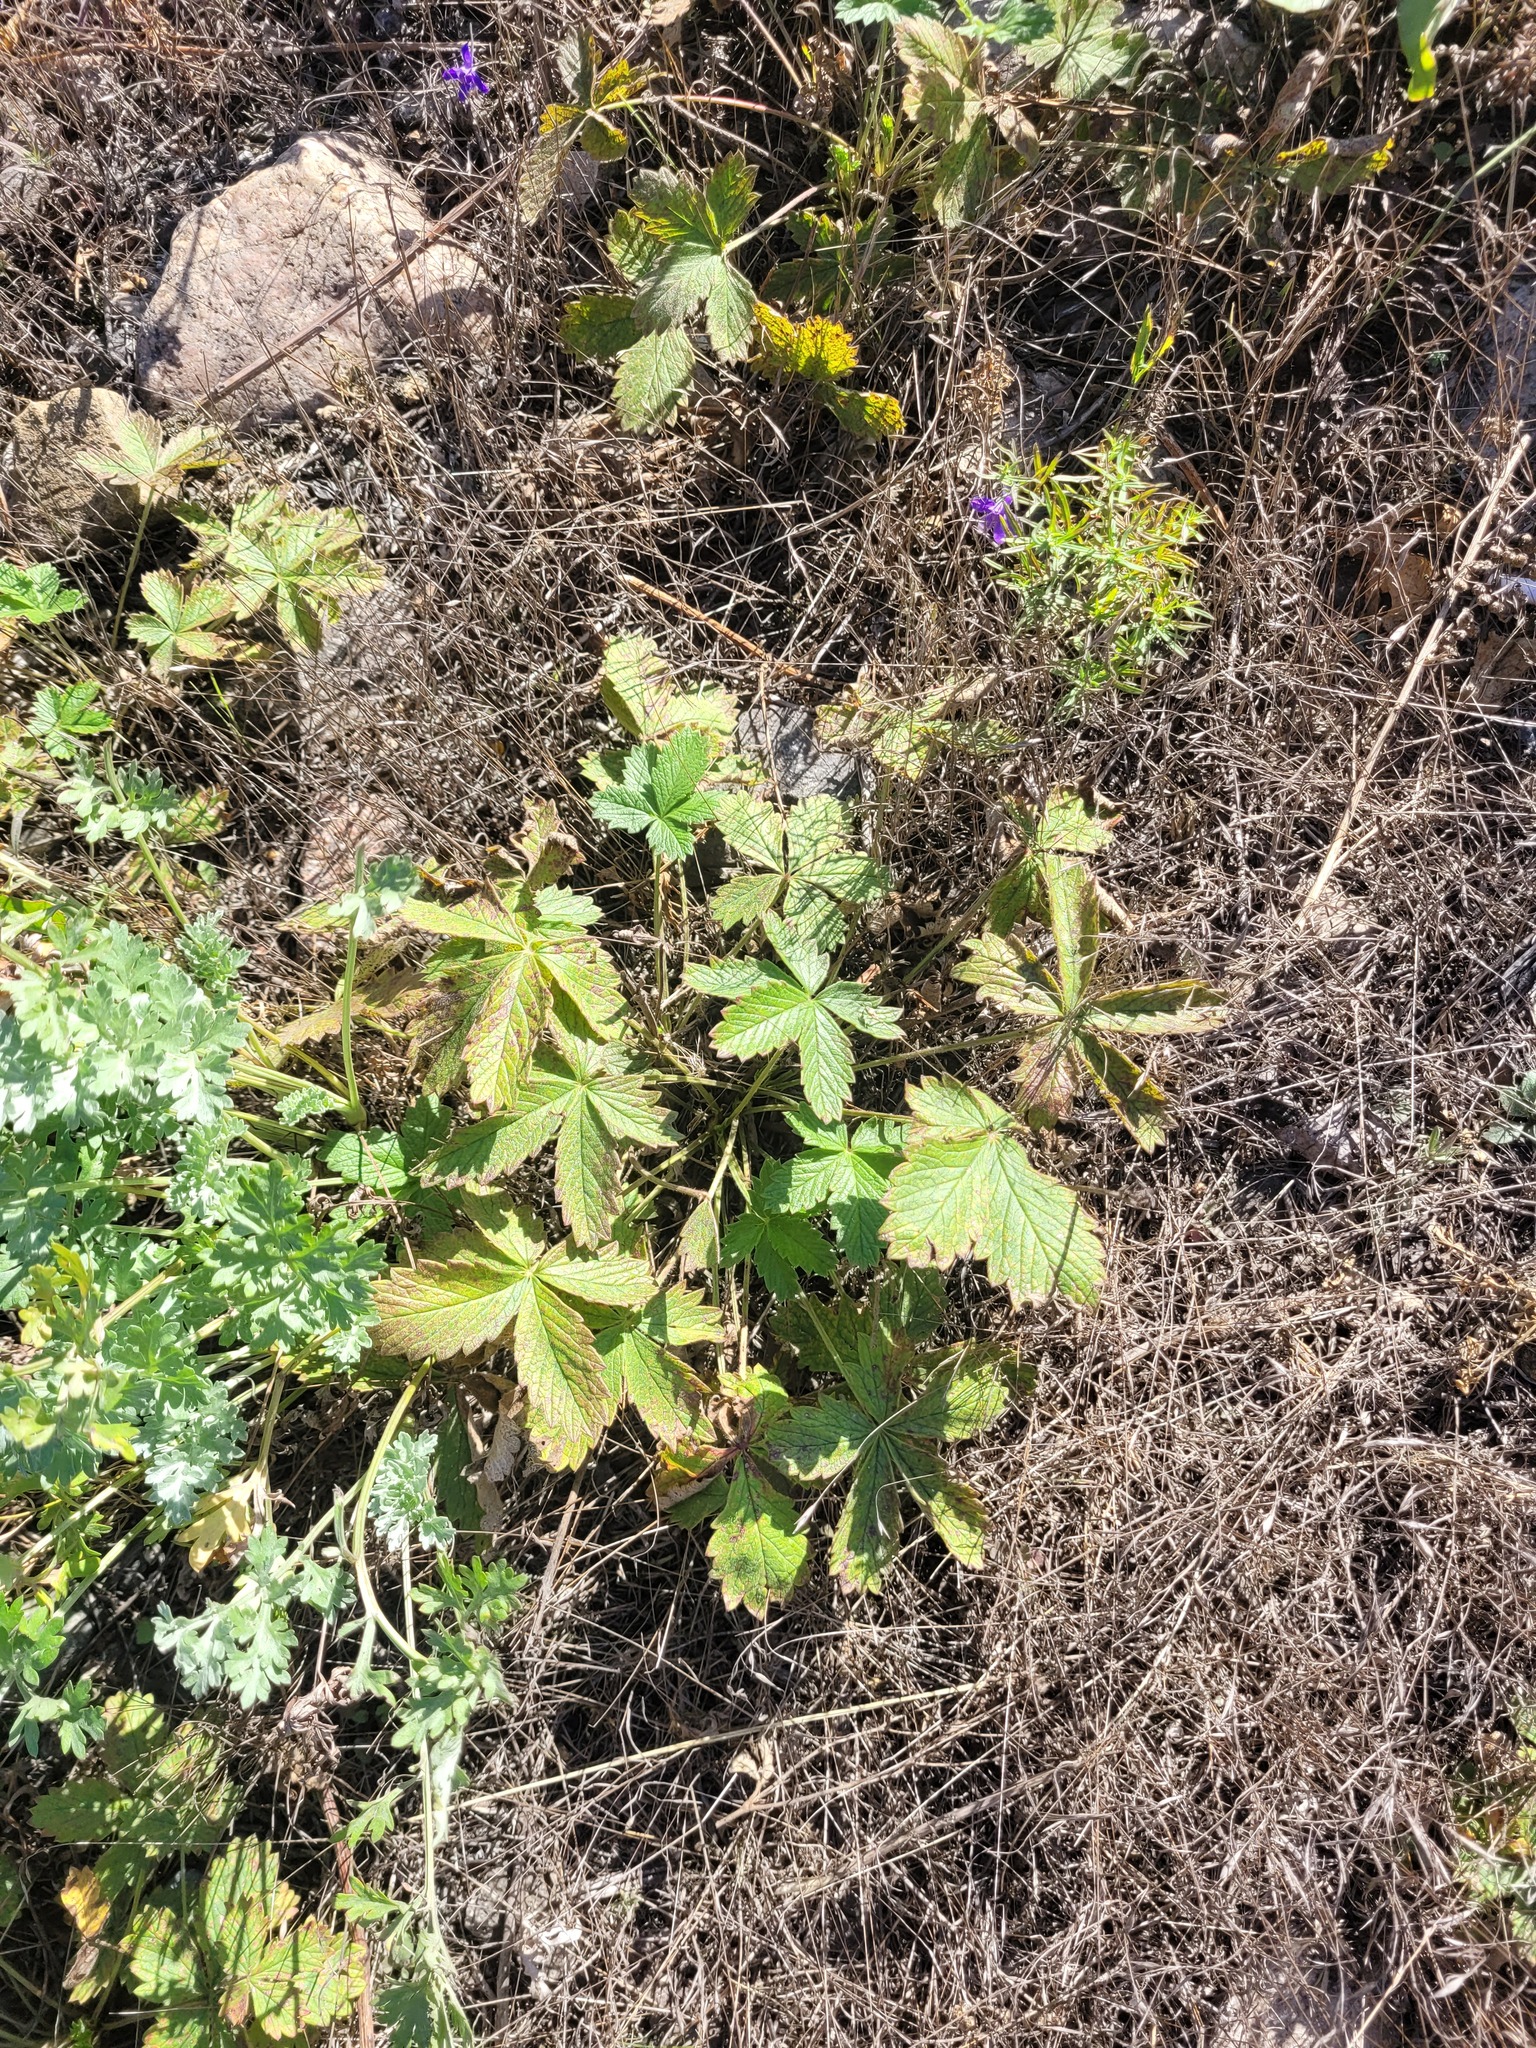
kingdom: Plantae
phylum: Tracheophyta
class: Magnoliopsida
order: Rosales
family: Rosaceae
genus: Potentilla
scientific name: Potentilla argentea
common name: Hoary cinquefoil
